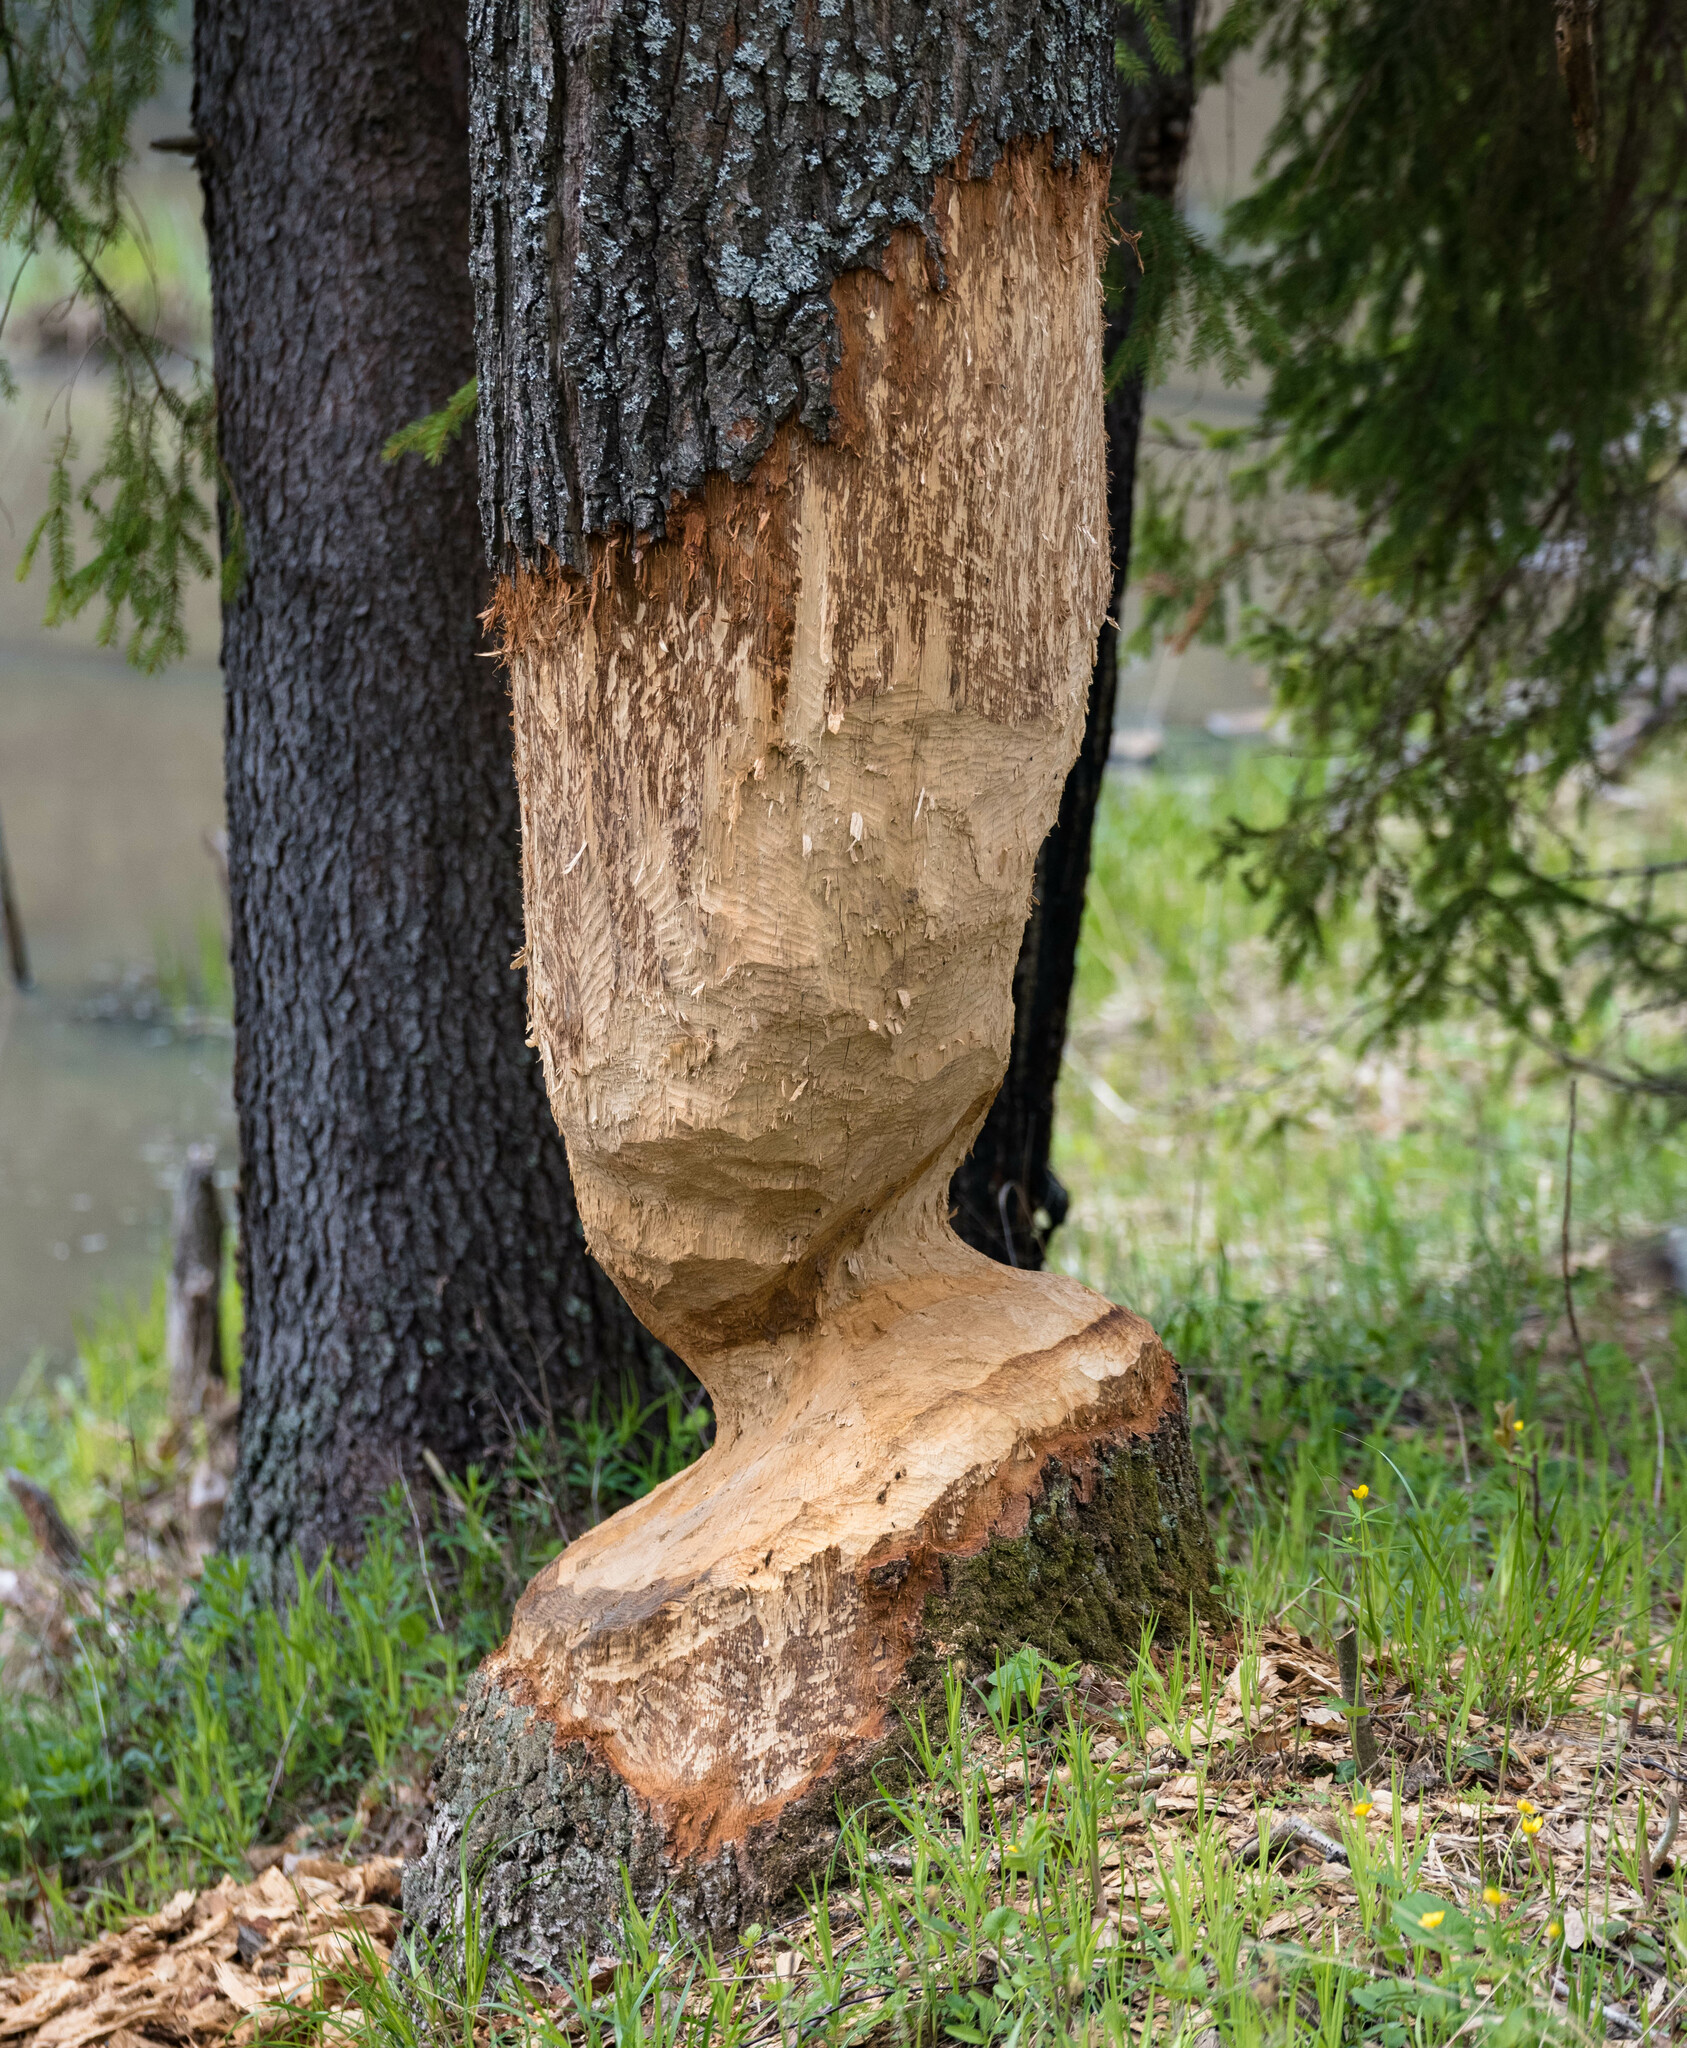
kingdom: Animalia
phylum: Chordata
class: Mammalia
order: Rodentia
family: Castoridae
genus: Castor
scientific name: Castor fiber
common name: Eurasian beaver
